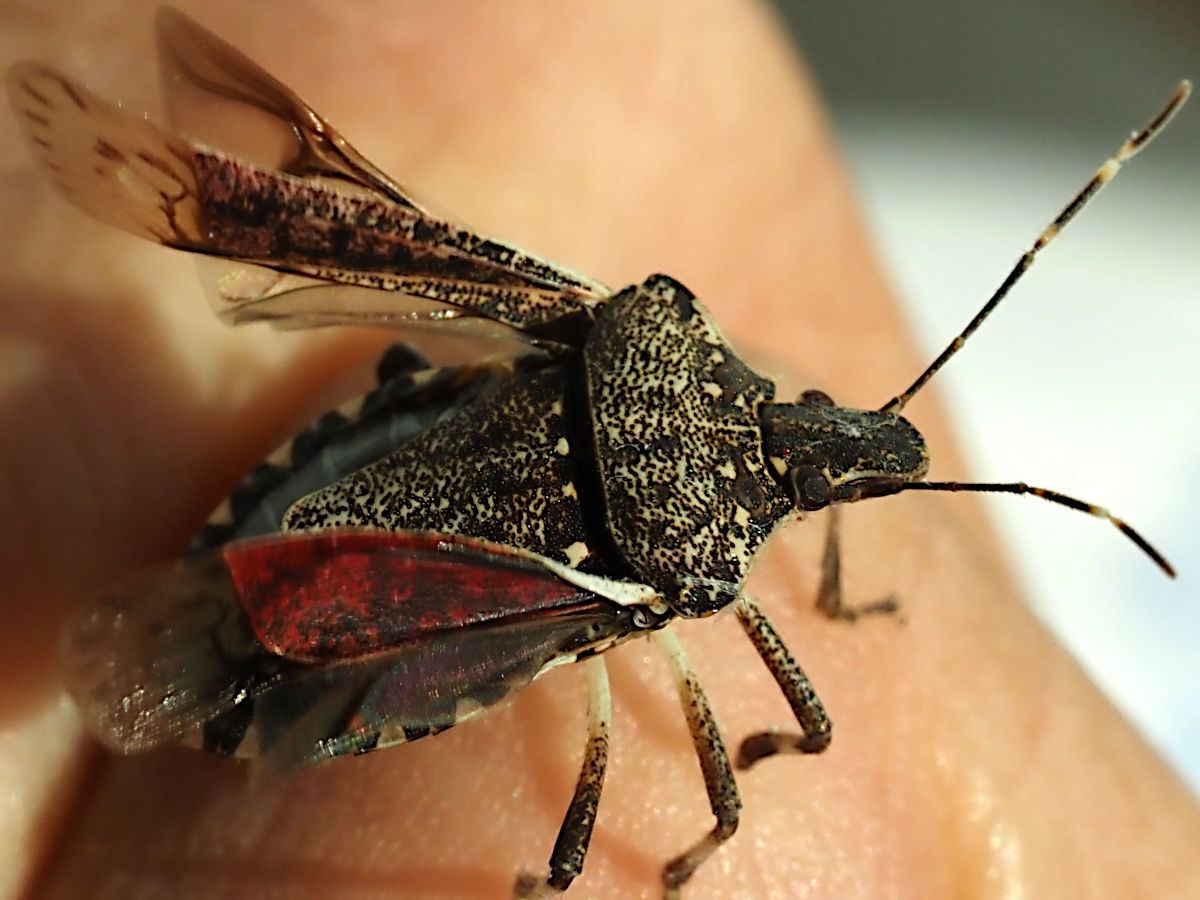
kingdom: Animalia
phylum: Arthropoda
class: Insecta
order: Hemiptera
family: Pentatomidae
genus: Halyomorpha
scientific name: Halyomorpha halys
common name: Brown marmorated stink bug
